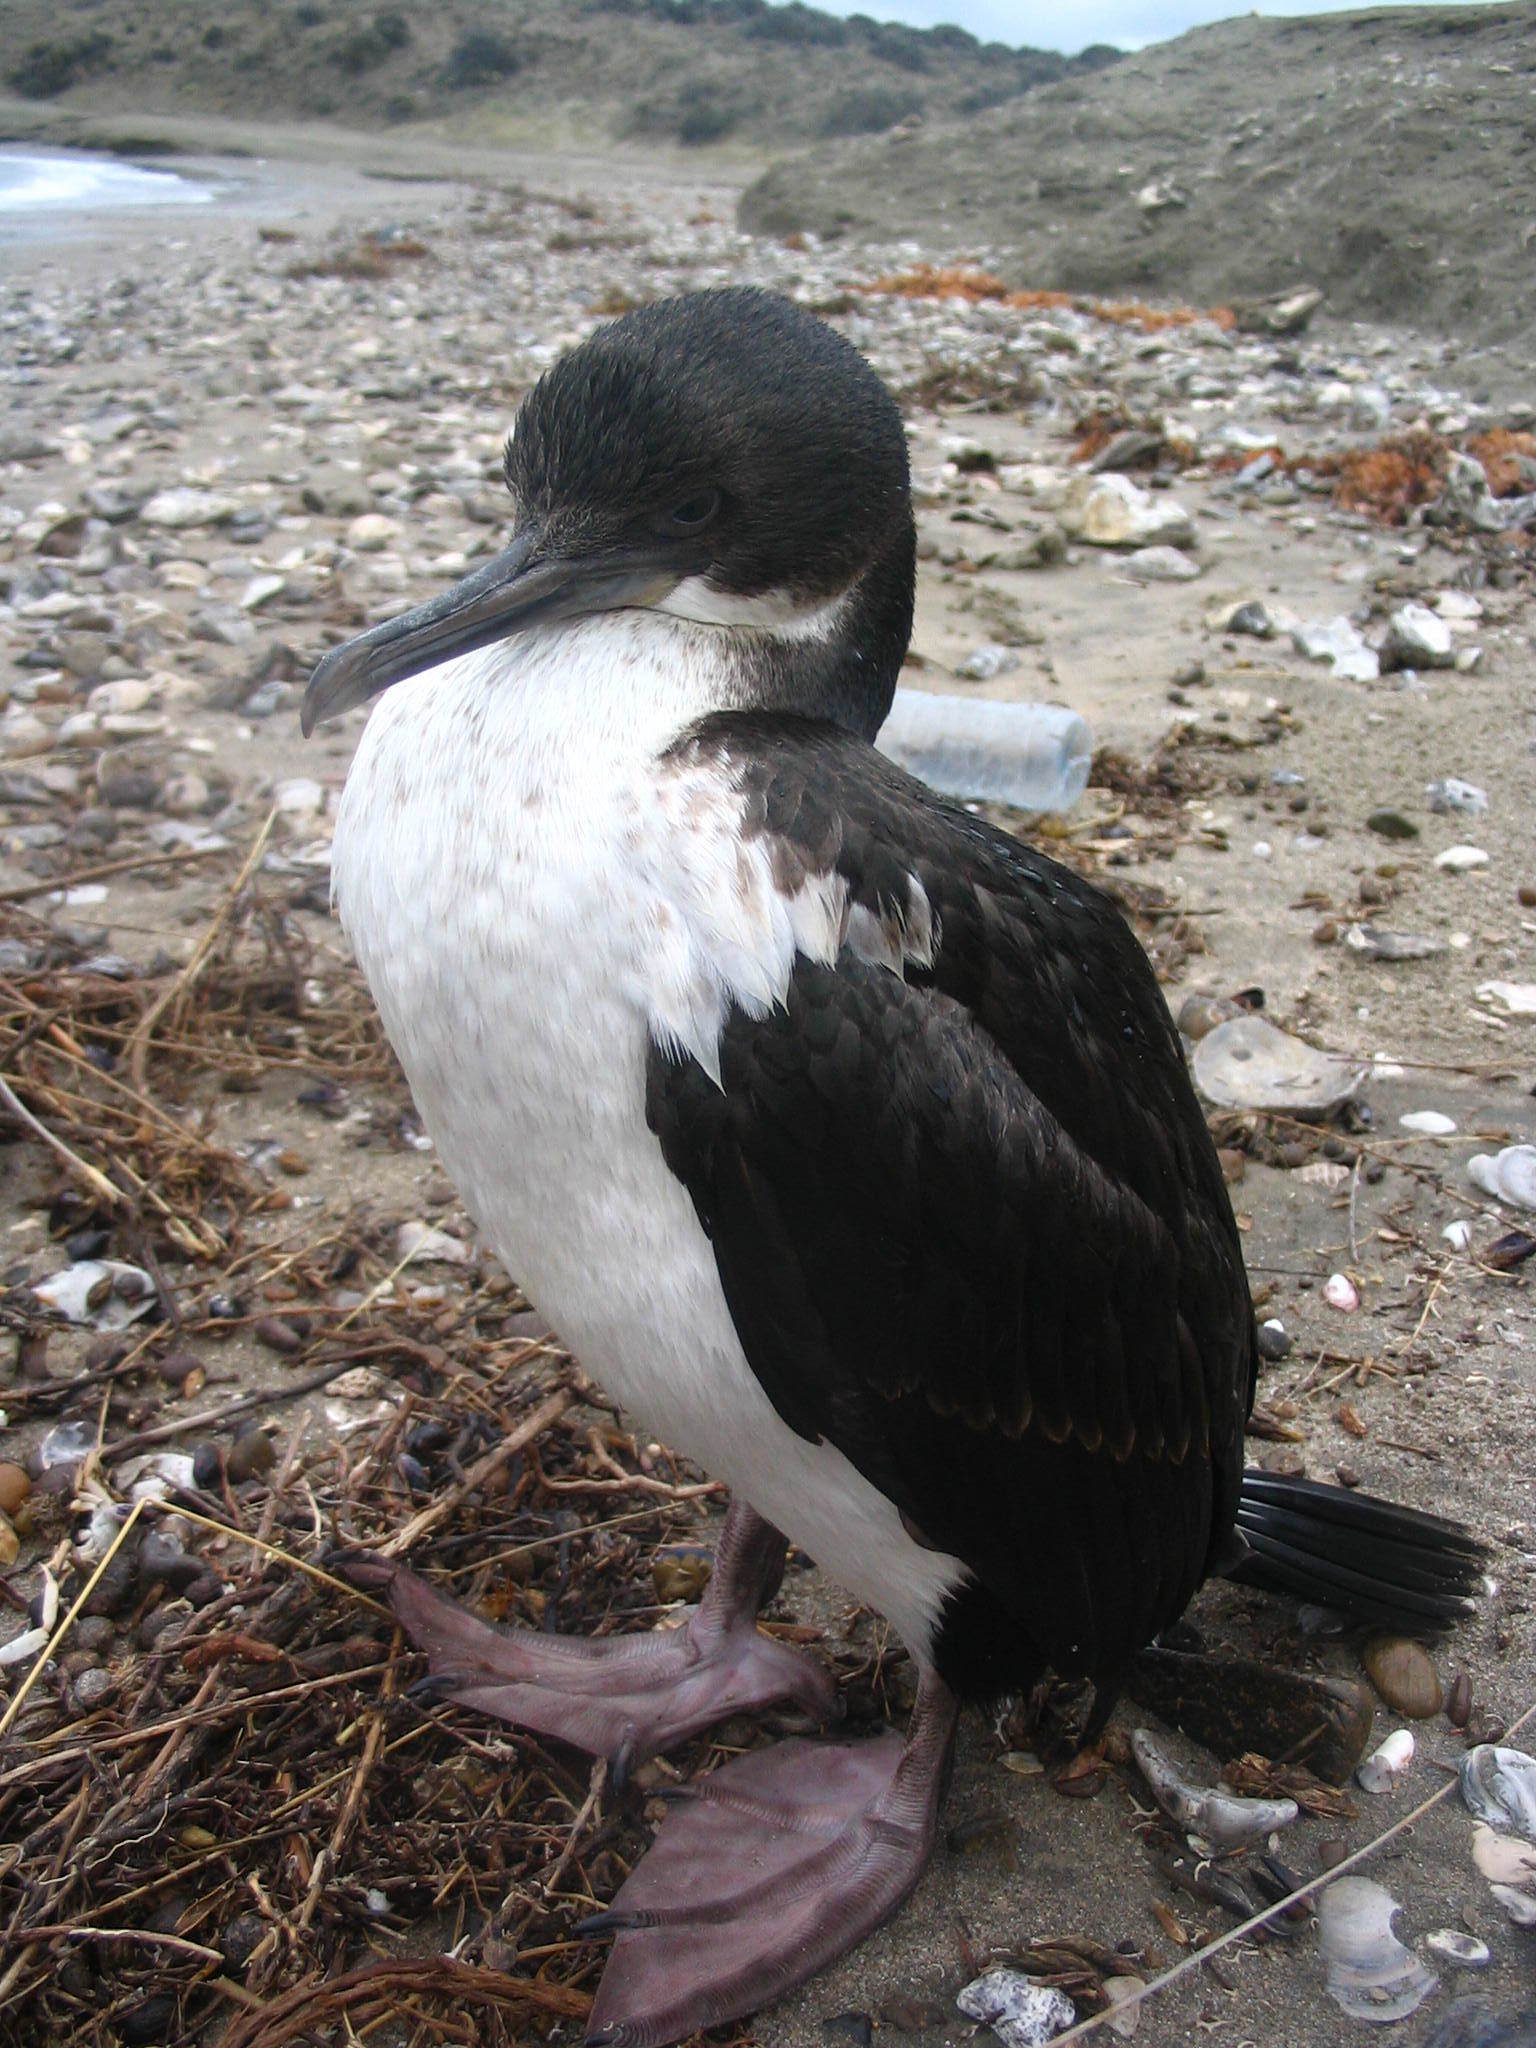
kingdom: Animalia
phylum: Chordata
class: Aves
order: Suliformes
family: Phalacrocoracidae
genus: Leucocarbo
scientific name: Leucocarbo atriceps
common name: Imperial shag
